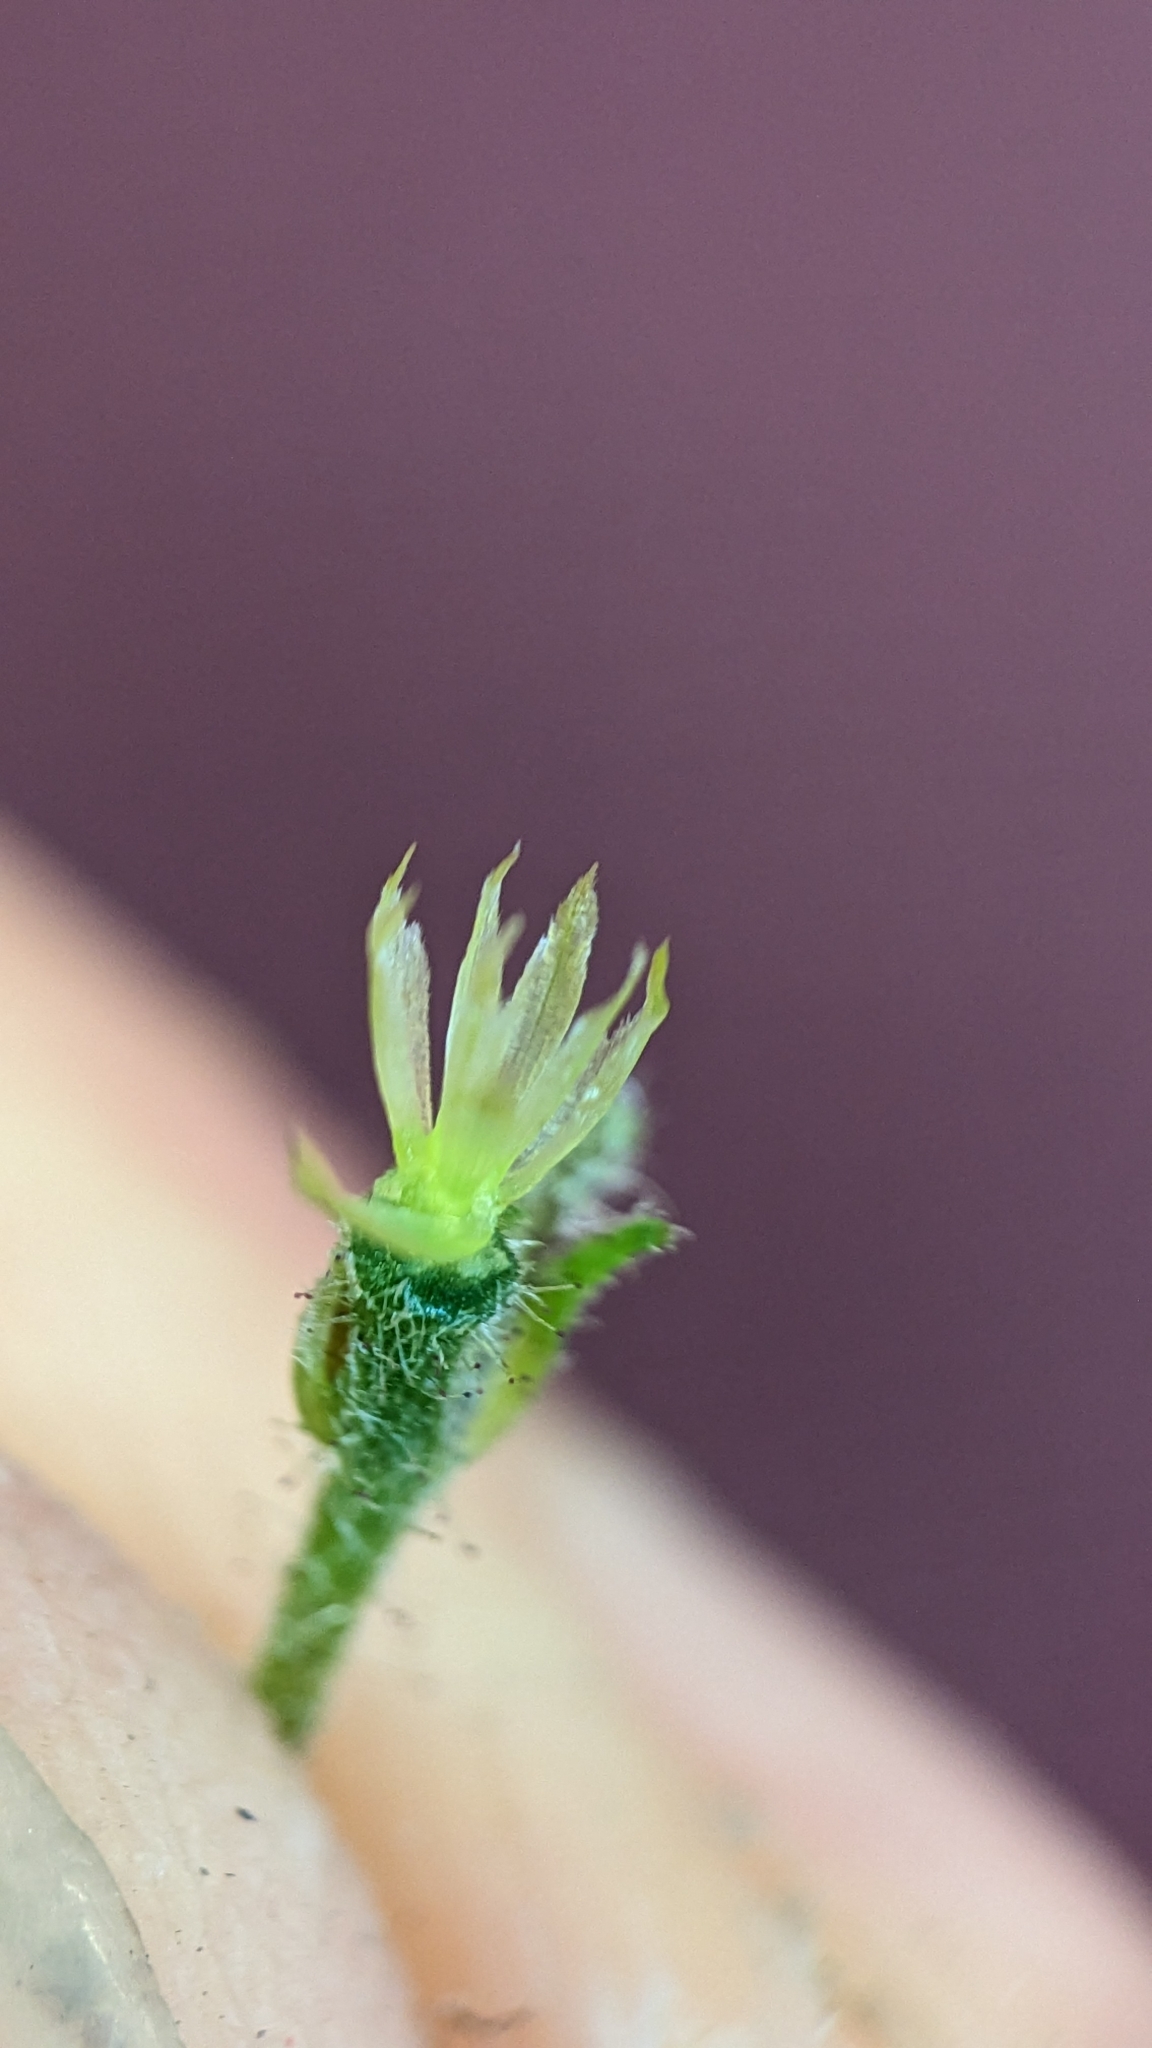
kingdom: Plantae
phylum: Tracheophyta
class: Magnoliopsida
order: Asterales
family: Asteraceae
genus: Galinsoga
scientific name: Galinsoga quadriradiata
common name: Shaggy soldier
